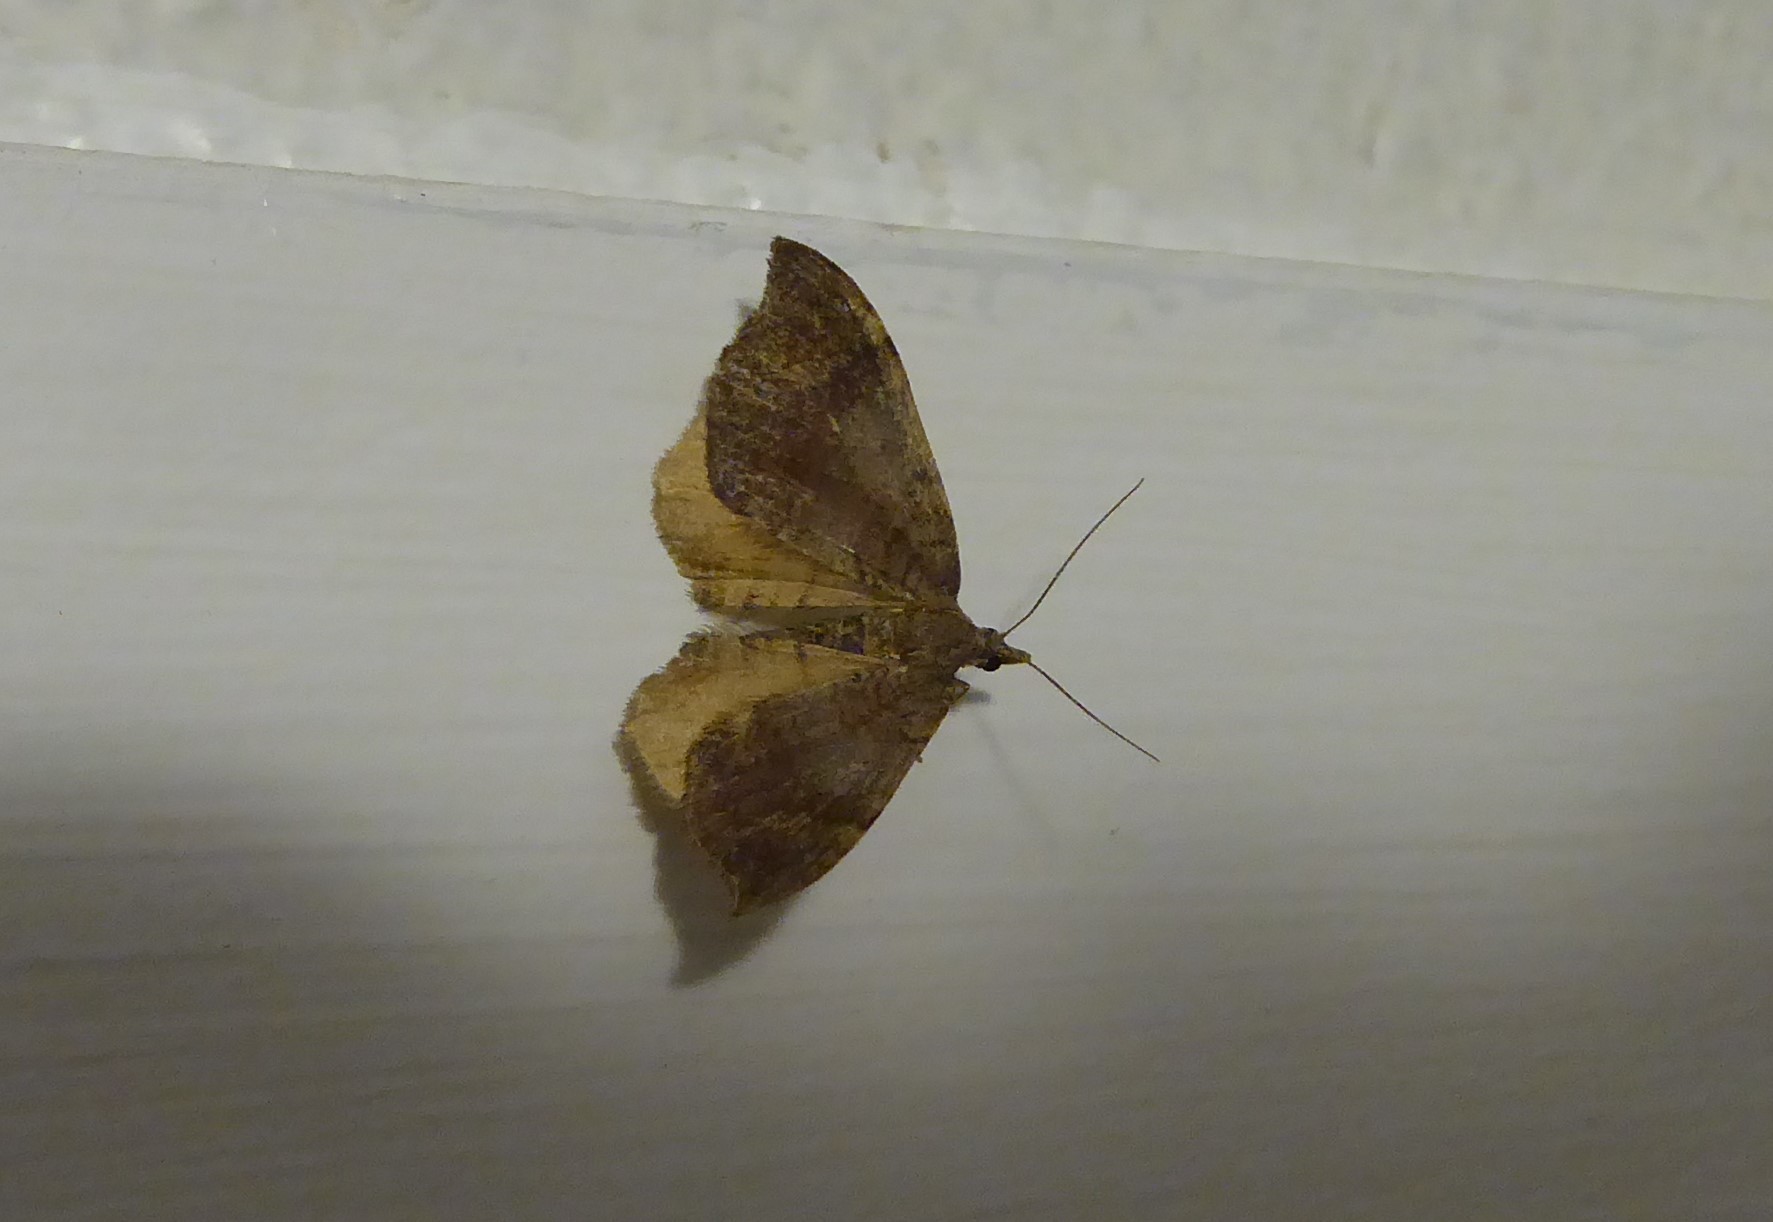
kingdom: Animalia
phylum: Arthropoda
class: Insecta
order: Lepidoptera
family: Geometridae
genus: Homodotis
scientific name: Homodotis megaspilata
